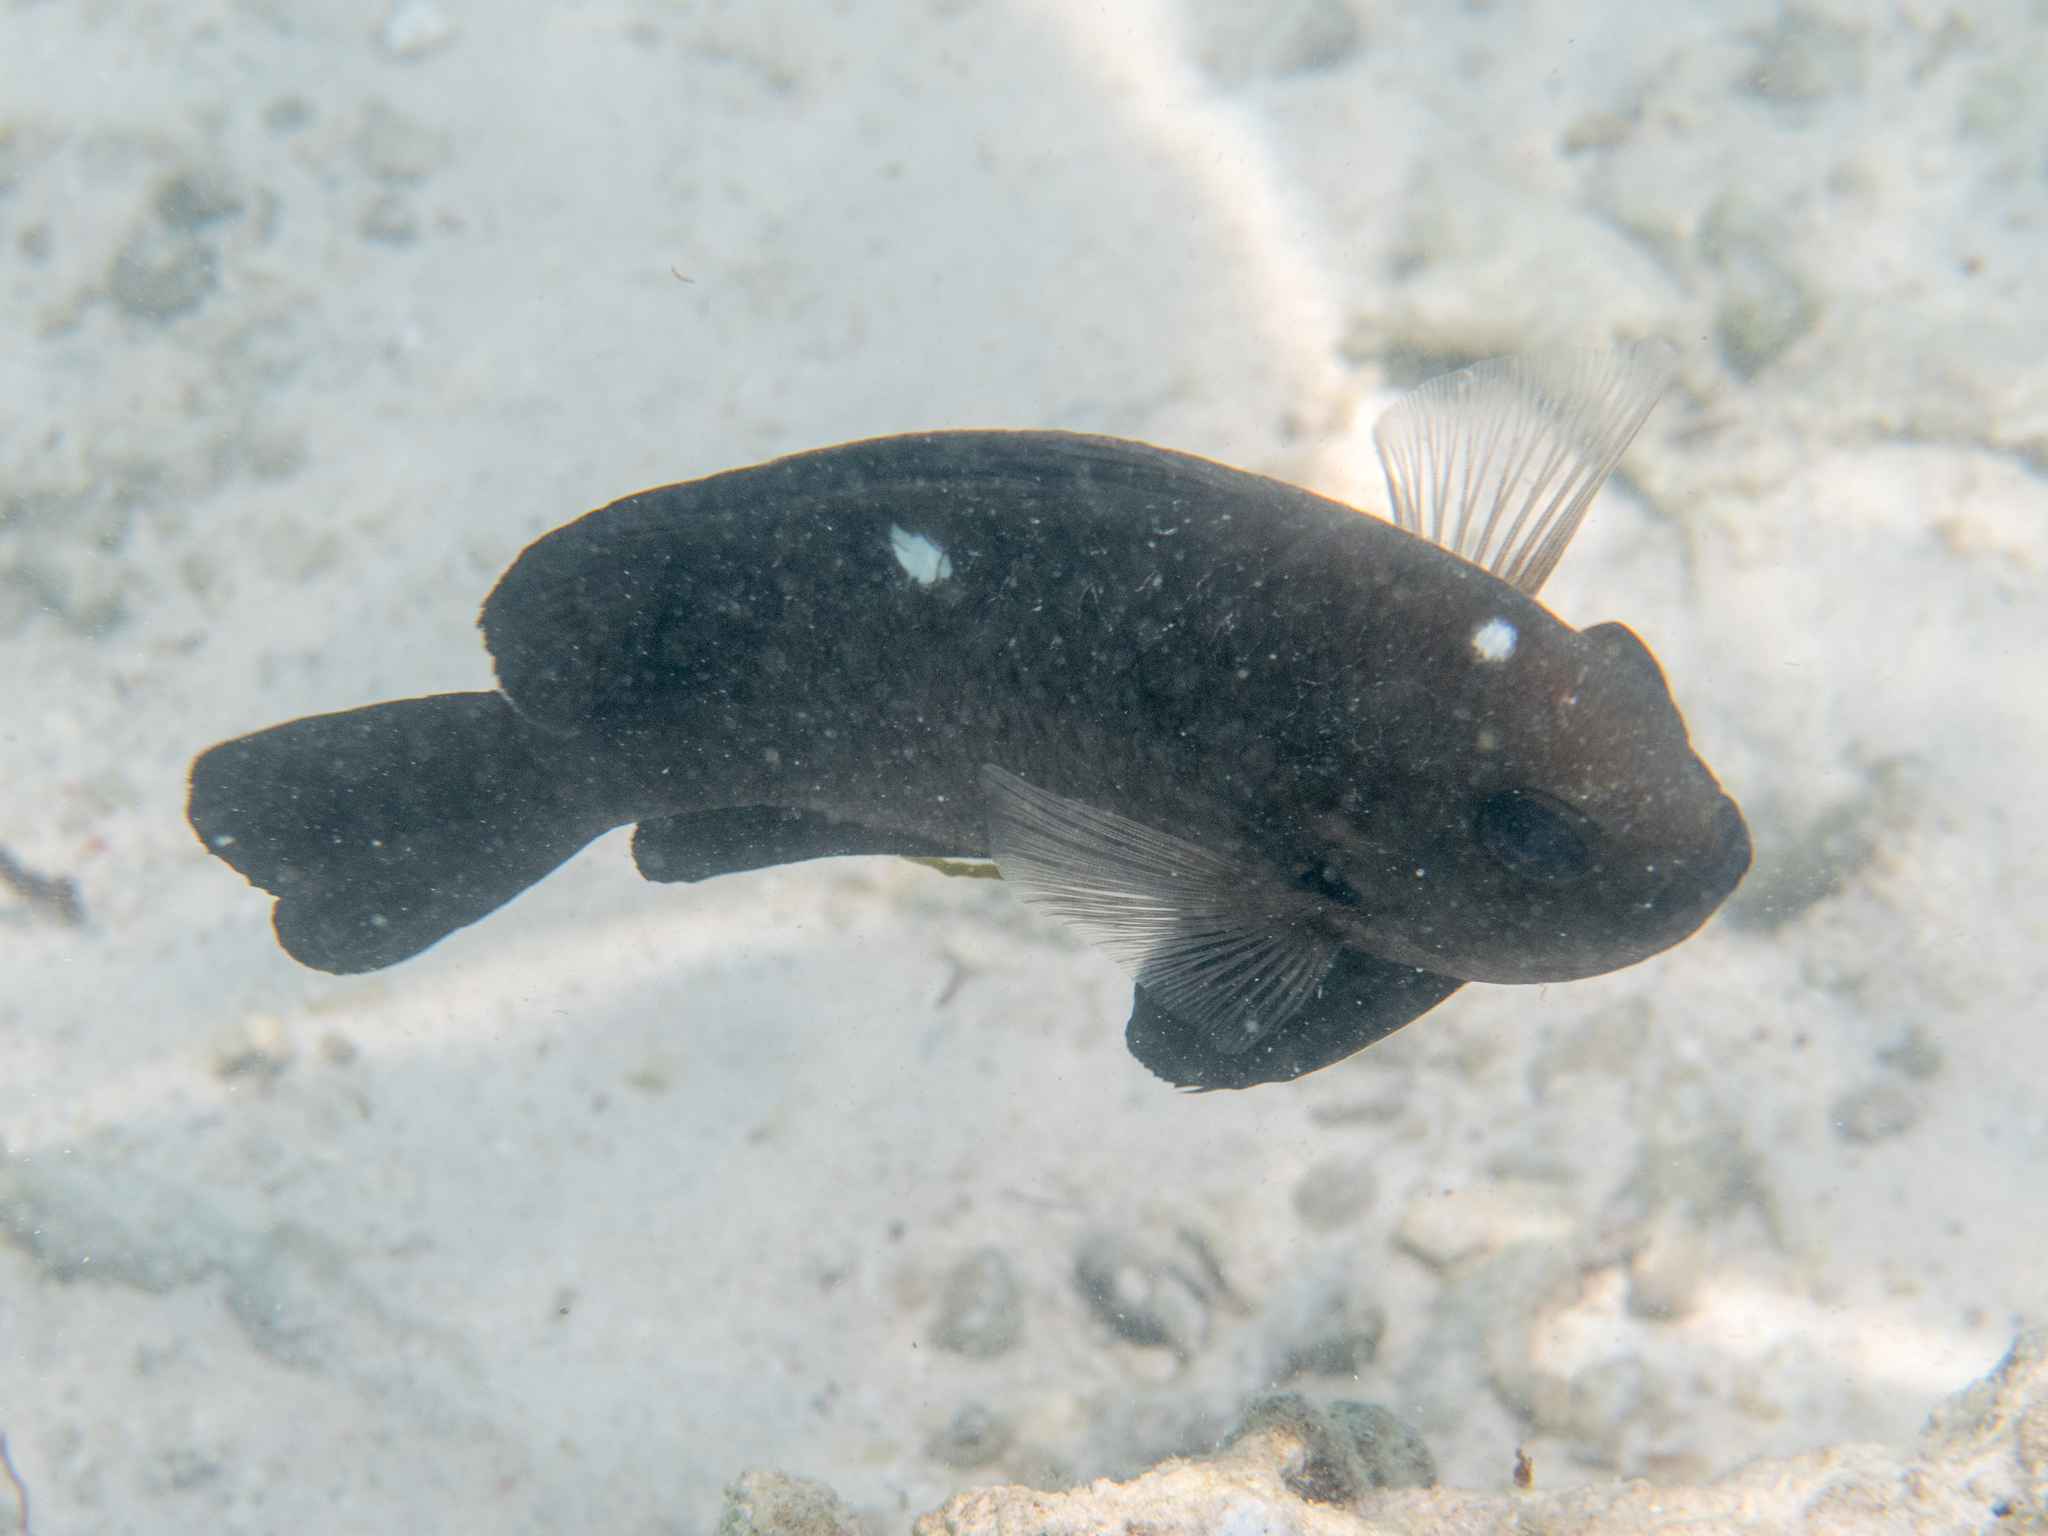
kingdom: Animalia
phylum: Chordata
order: Perciformes
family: Pomacentridae
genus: Dascyllus
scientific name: Dascyllus trimaculatus
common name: Threespot dascyllus
